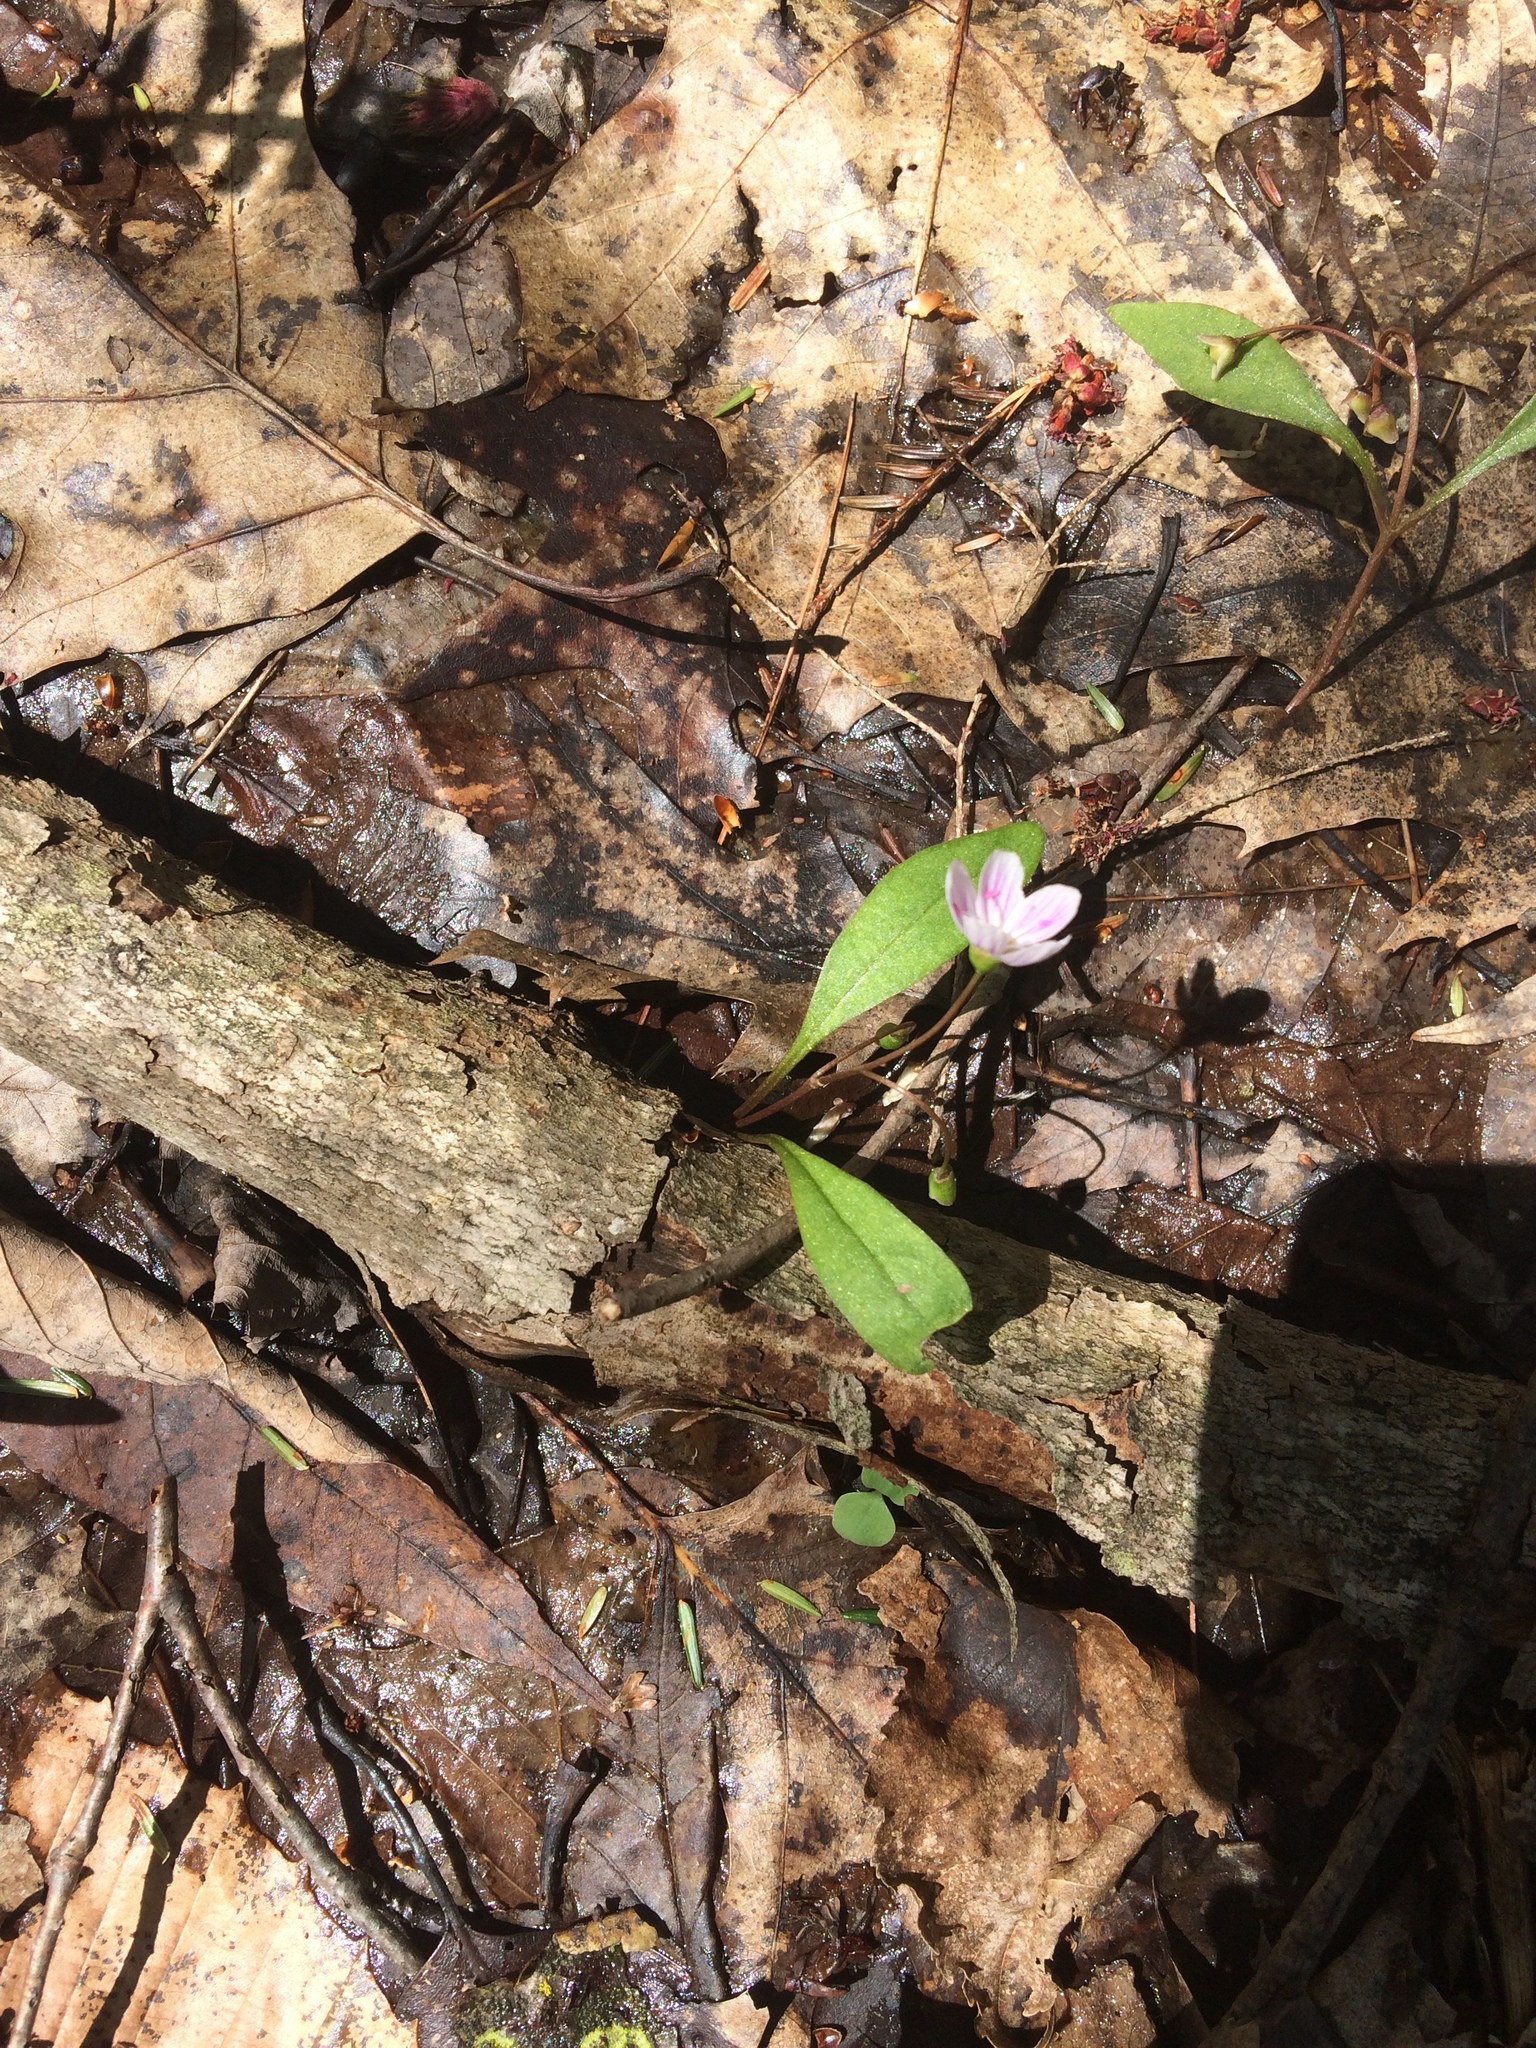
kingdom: Plantae
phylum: Tracheophyta
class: Magnoliopsida
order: Caryophyllales
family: Montiaceae
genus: Claytonia
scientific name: Claytonia caroliniana
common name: Carolina spring beauty
